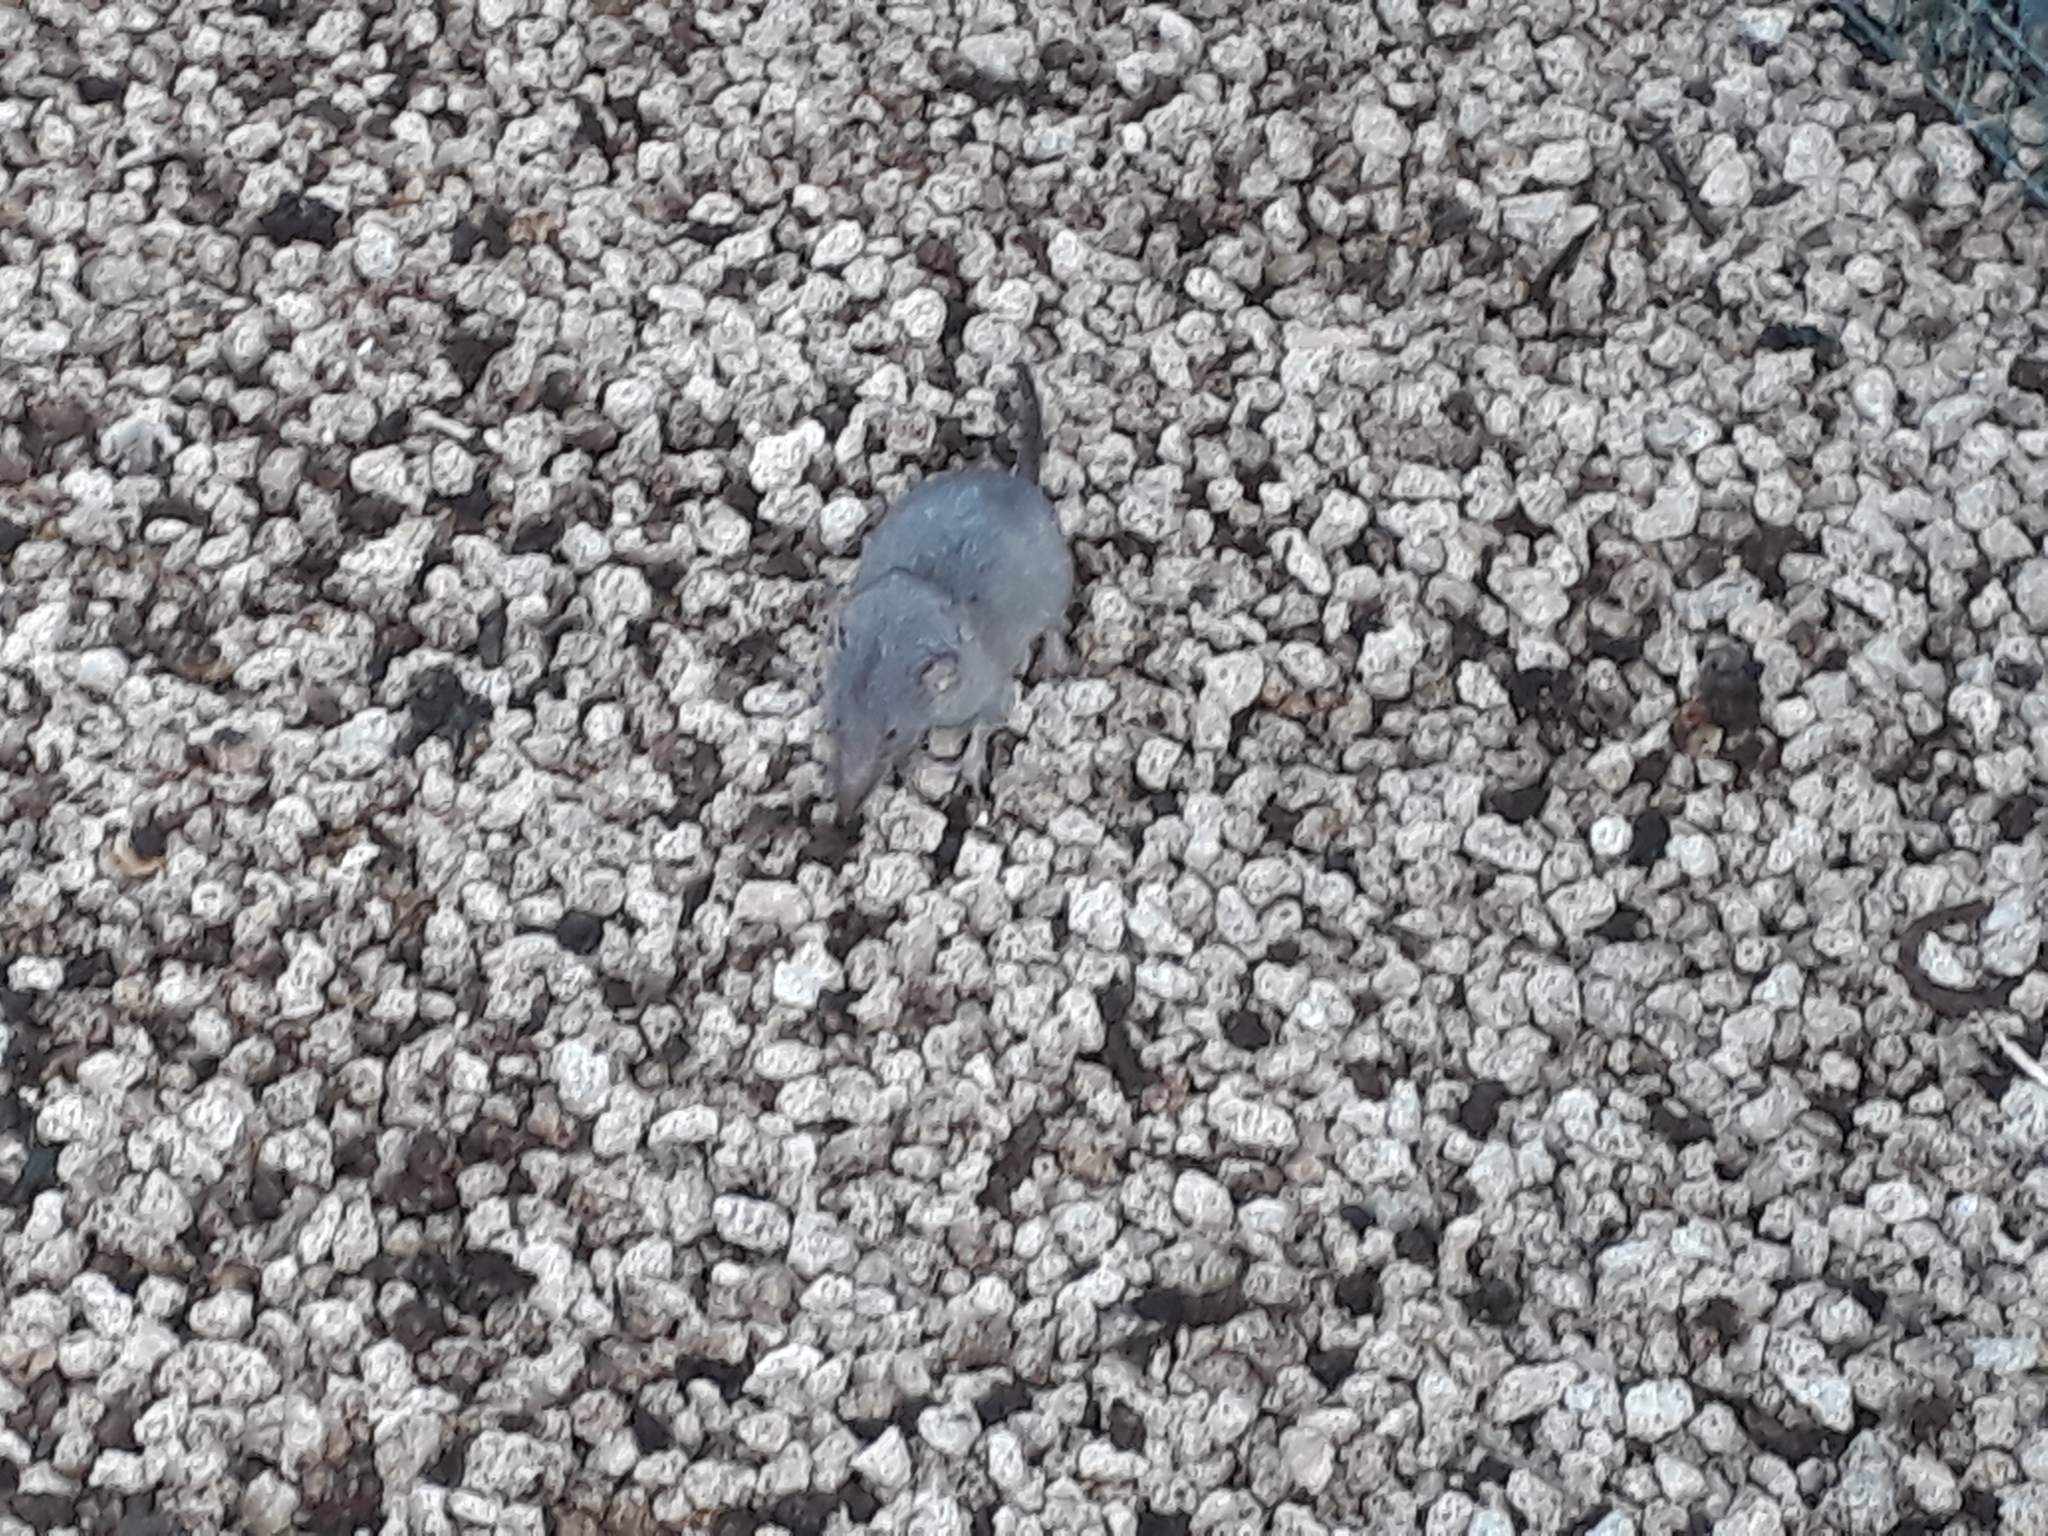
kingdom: Animalia
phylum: Chordata
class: Mammalia
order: Soricomorpha
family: Soricidae
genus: Suncus
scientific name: Suncus murinus
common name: Asian house shrew
